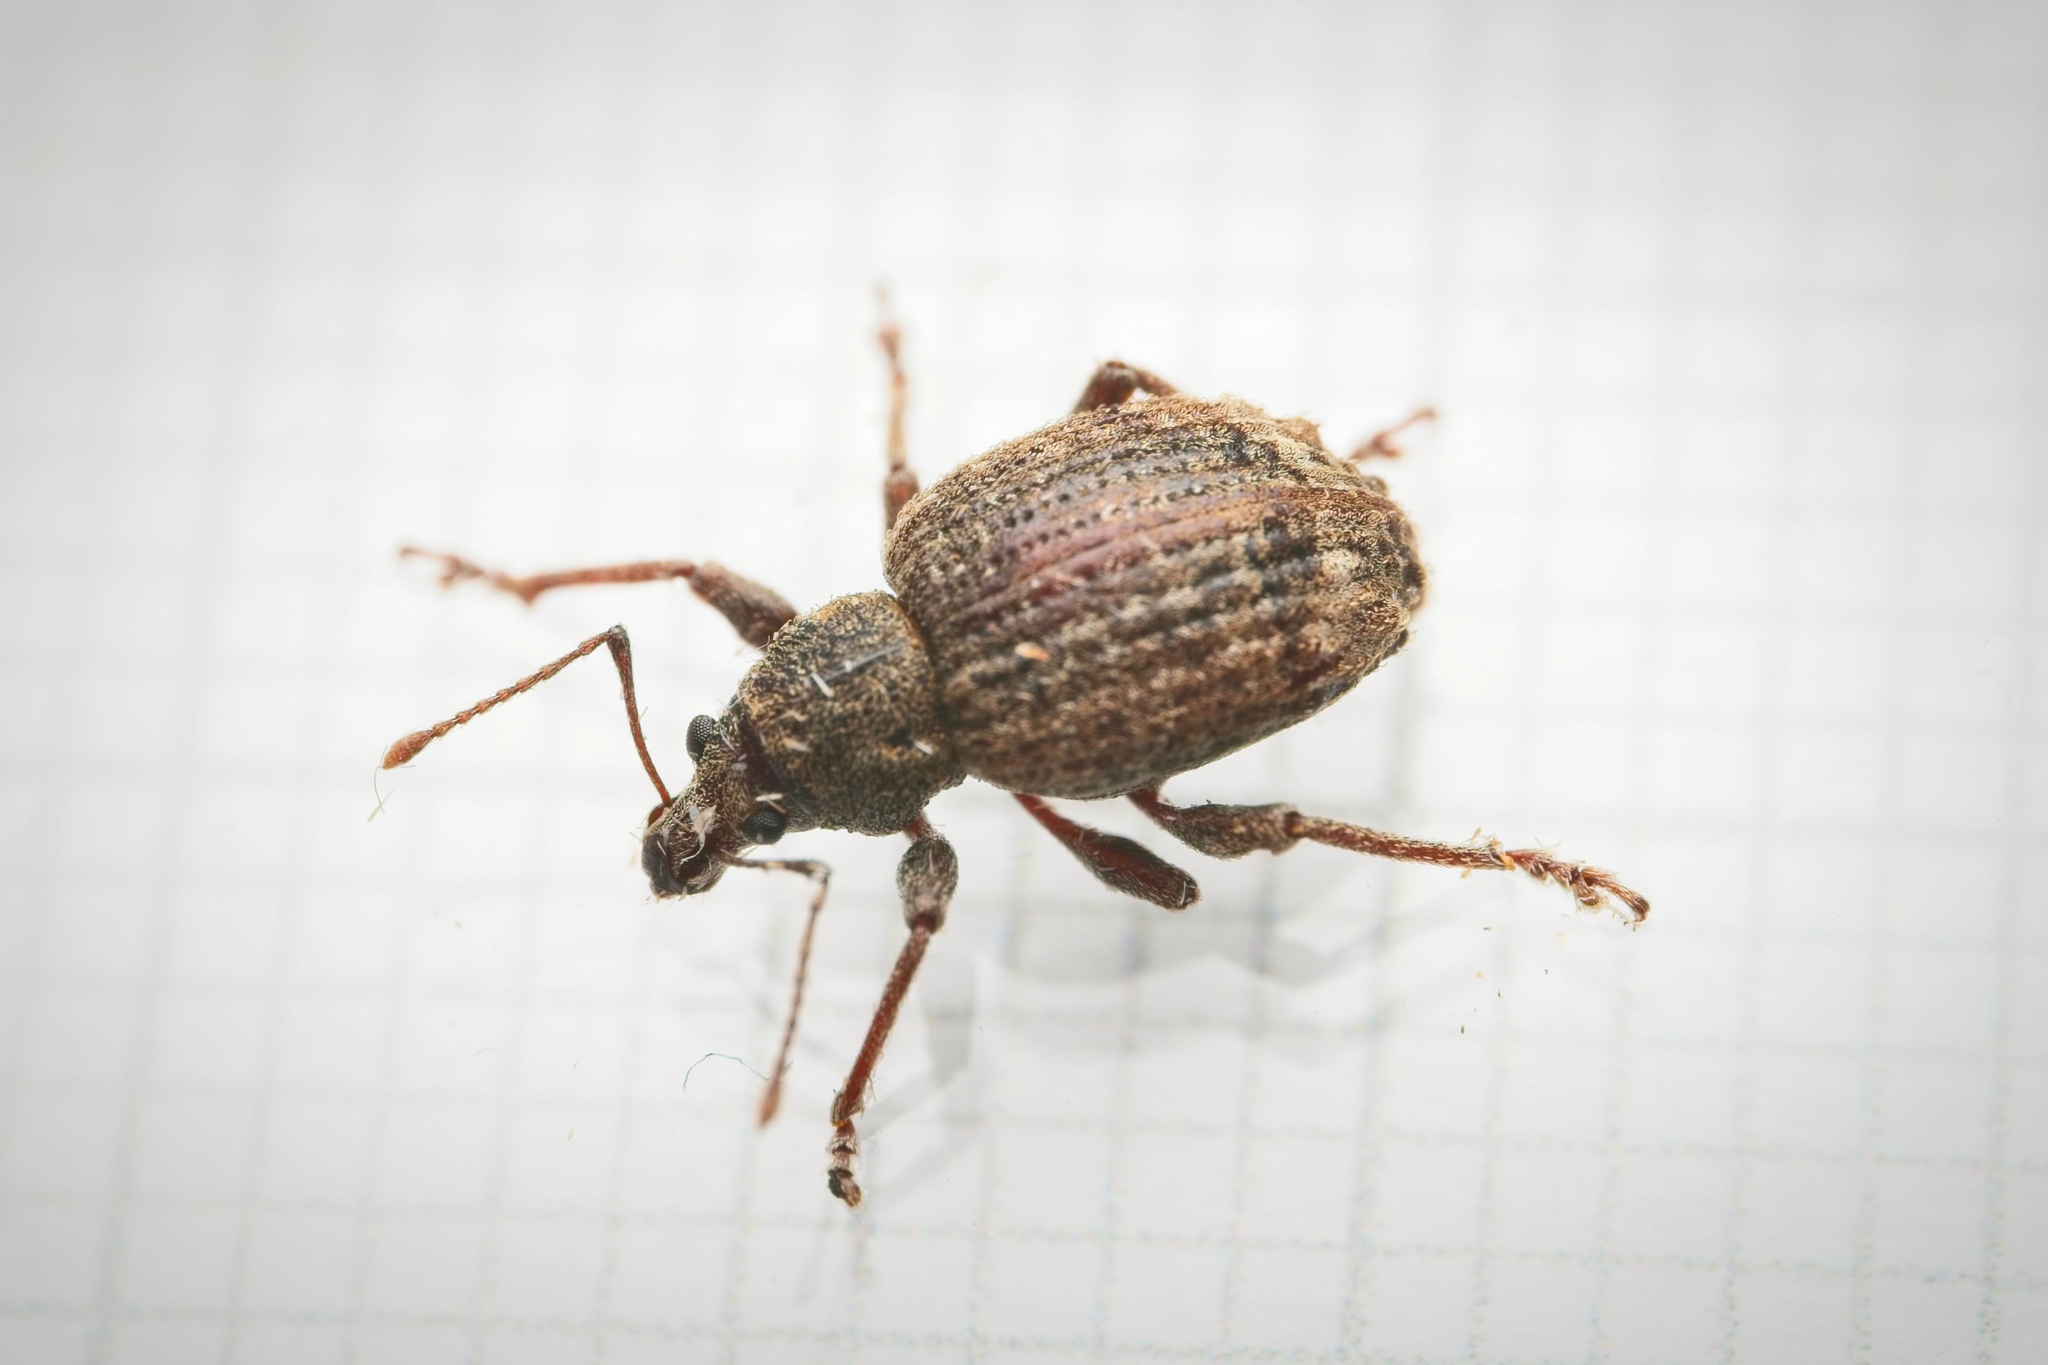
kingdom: Animalia
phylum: Arthropoda
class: Insecta
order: Coleoptera
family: Curculionidae
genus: Phlyctinus
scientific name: Phlyctinus callosus
